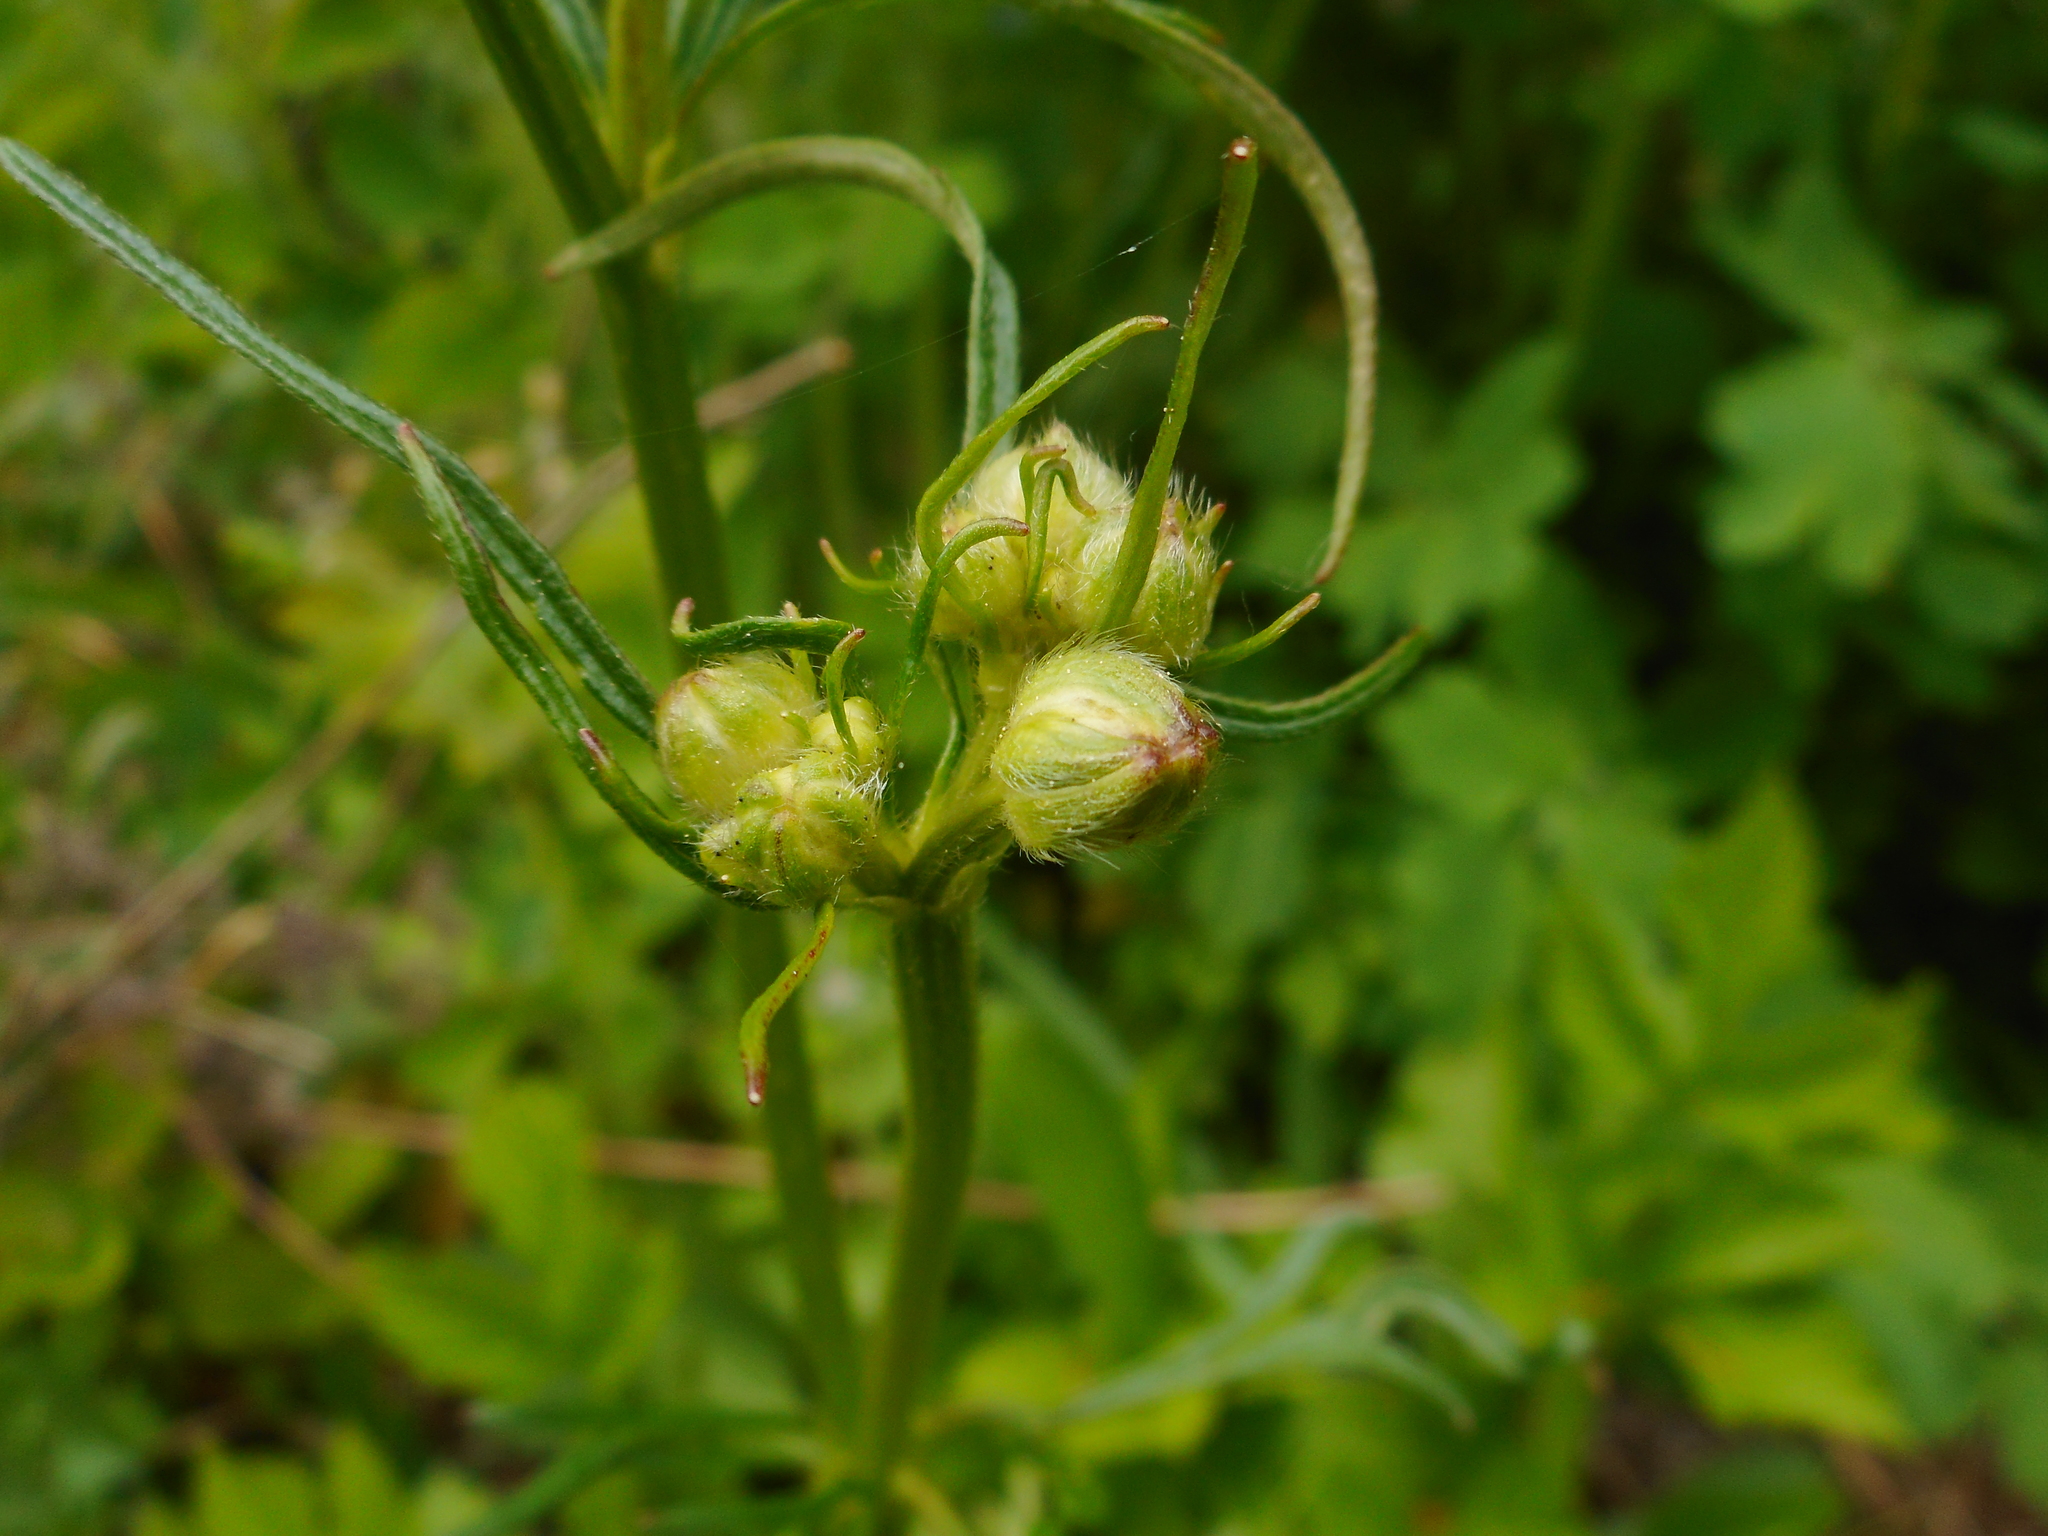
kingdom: Plantae
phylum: Tracheophyta
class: Magnoliopsida
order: Ranunculales
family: Ranunculaceae
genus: Ranunculus
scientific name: Ranunculus polyanthemos
